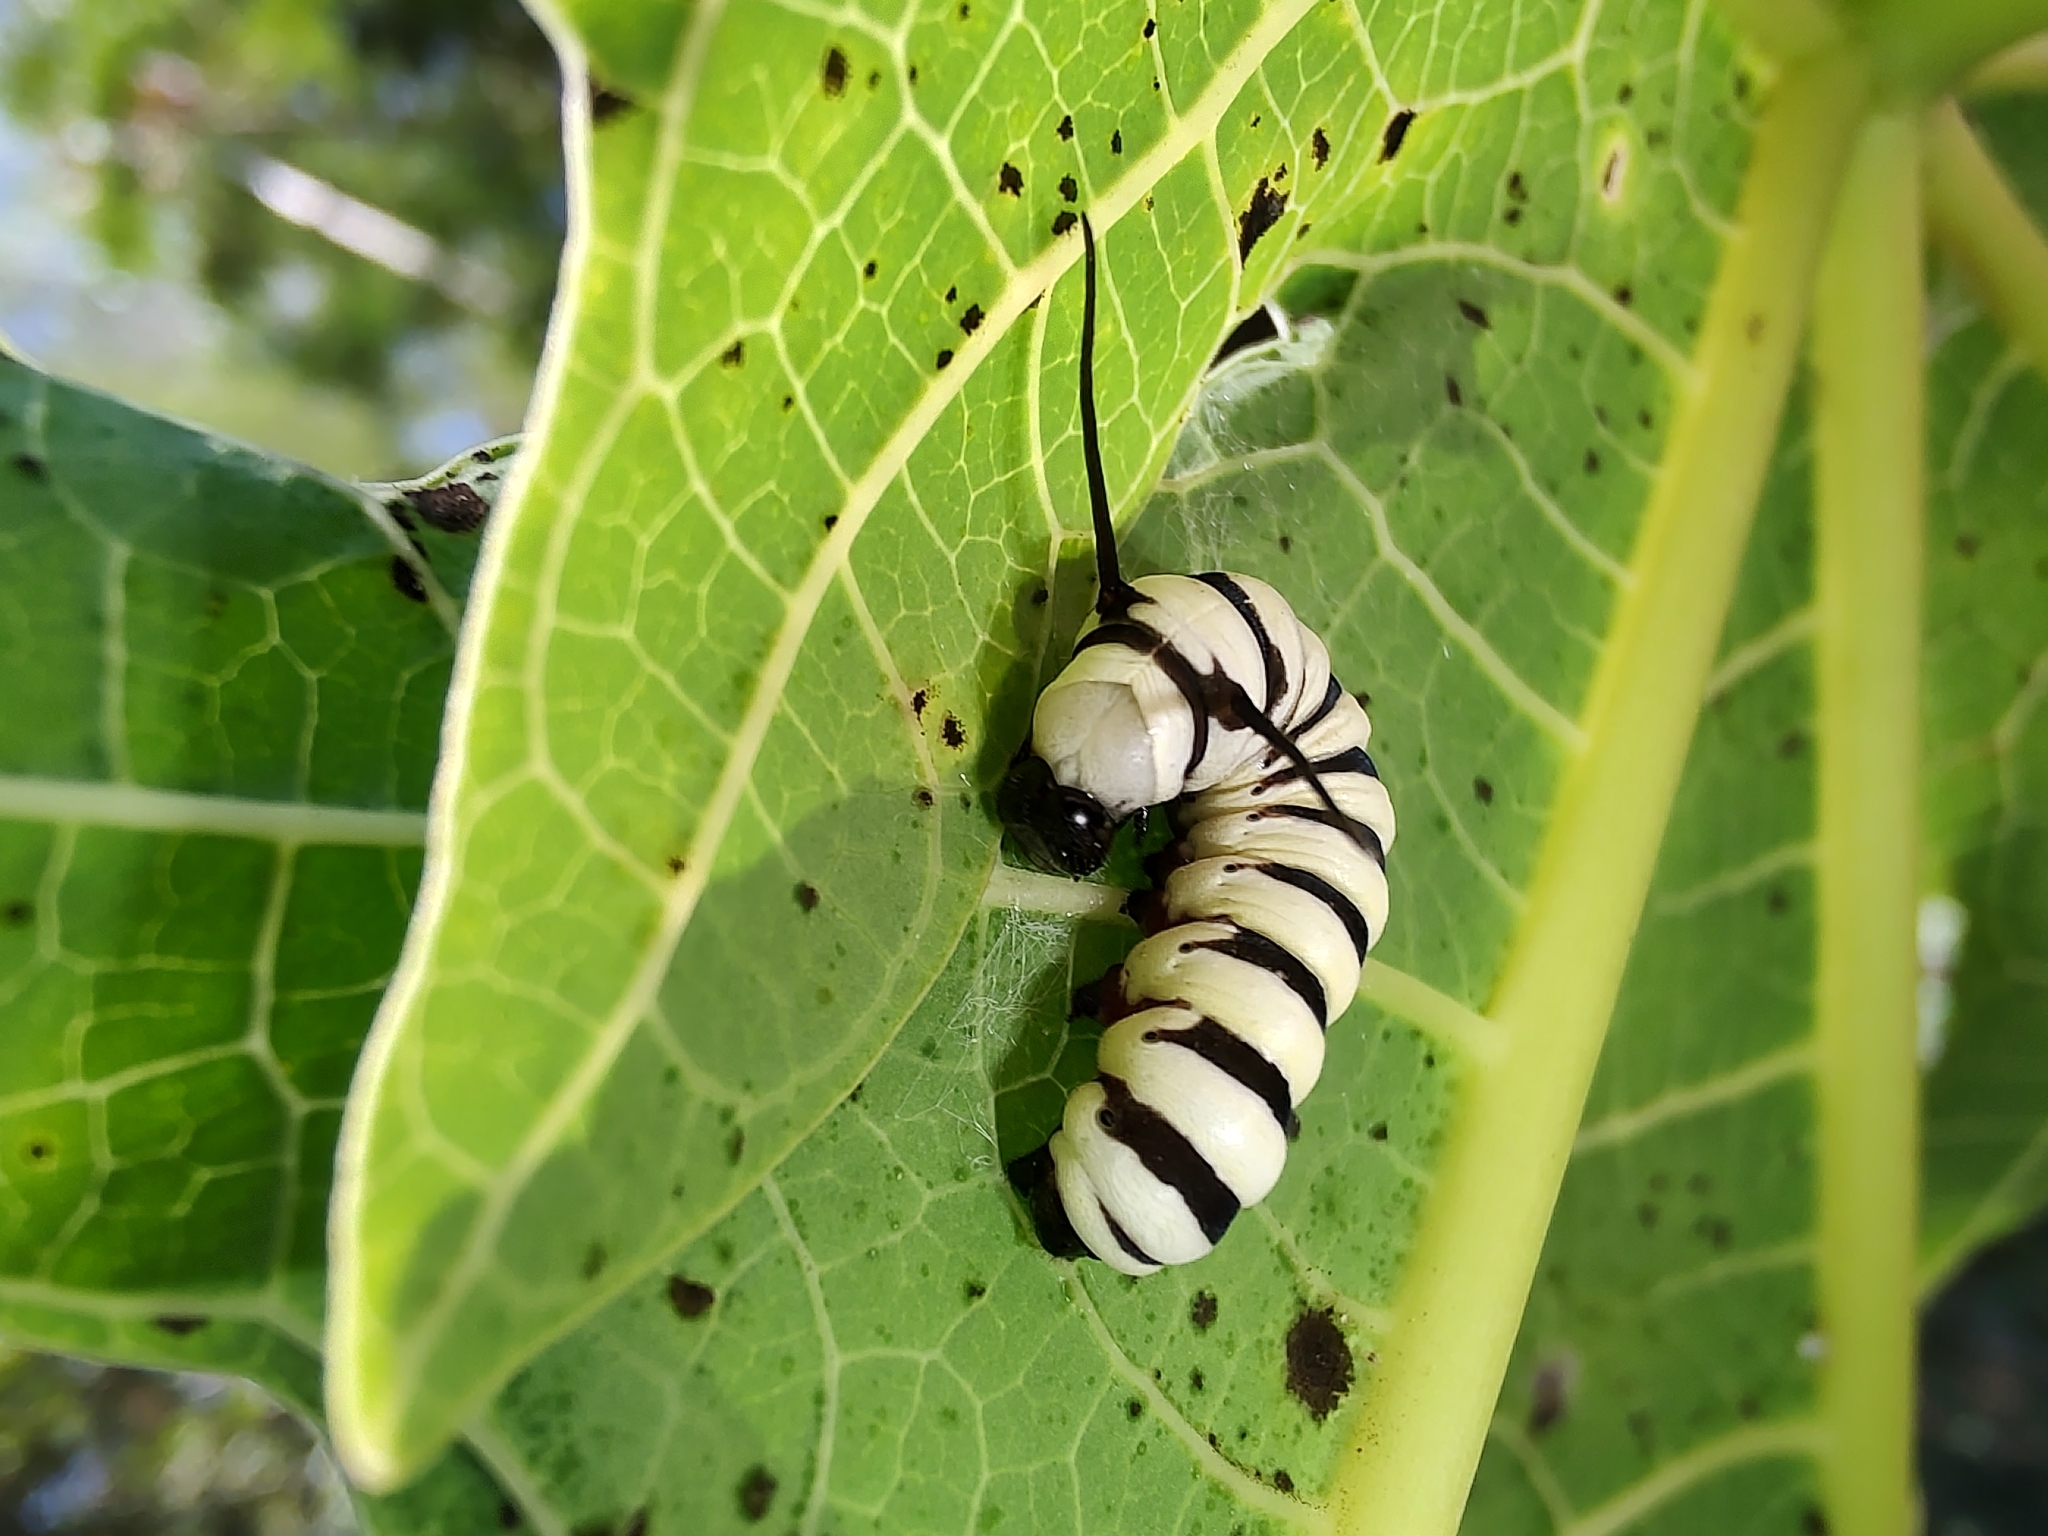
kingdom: Animalia
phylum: Arthropoda
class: Insecta
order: Lepidoptera
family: Nymphalidae
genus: Lycorea
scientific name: Lycorea cleobaea
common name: Tiger mimic-queen
